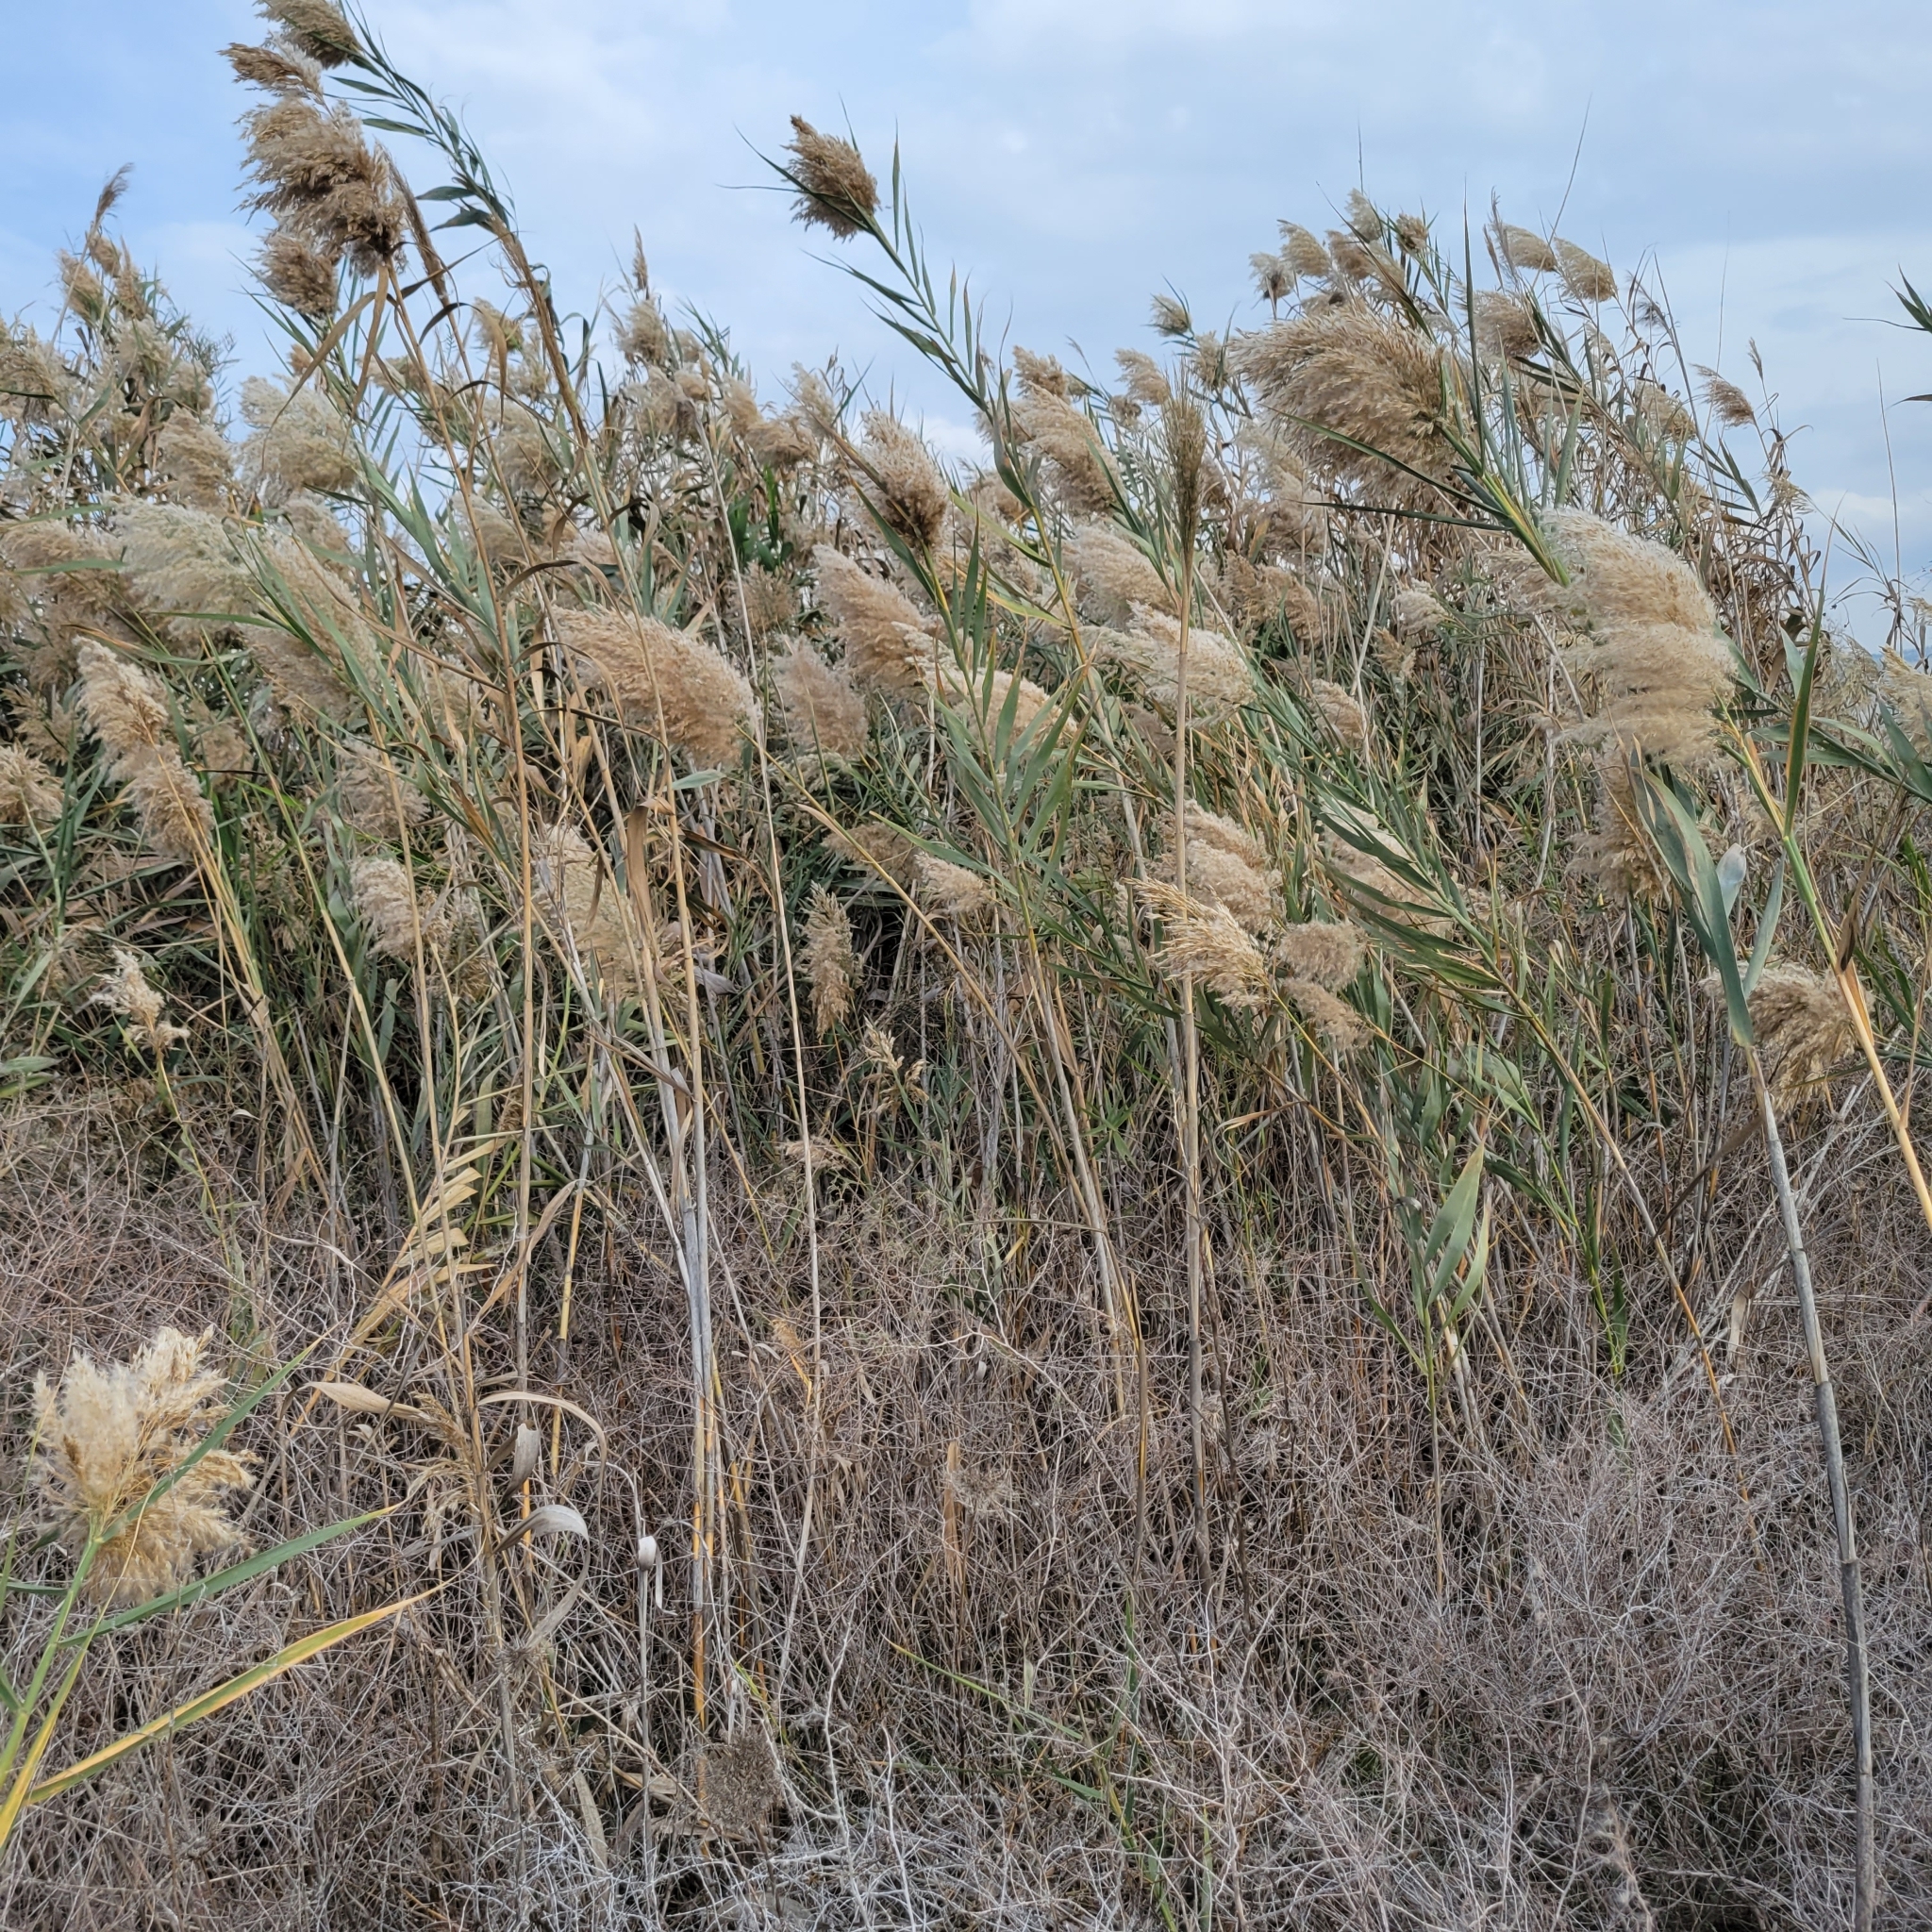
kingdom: Plantae
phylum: Tracheophyta
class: Liliopsida
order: Poales
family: Poaceae
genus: Phragmites
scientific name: Phragmites australis
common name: Common reed
